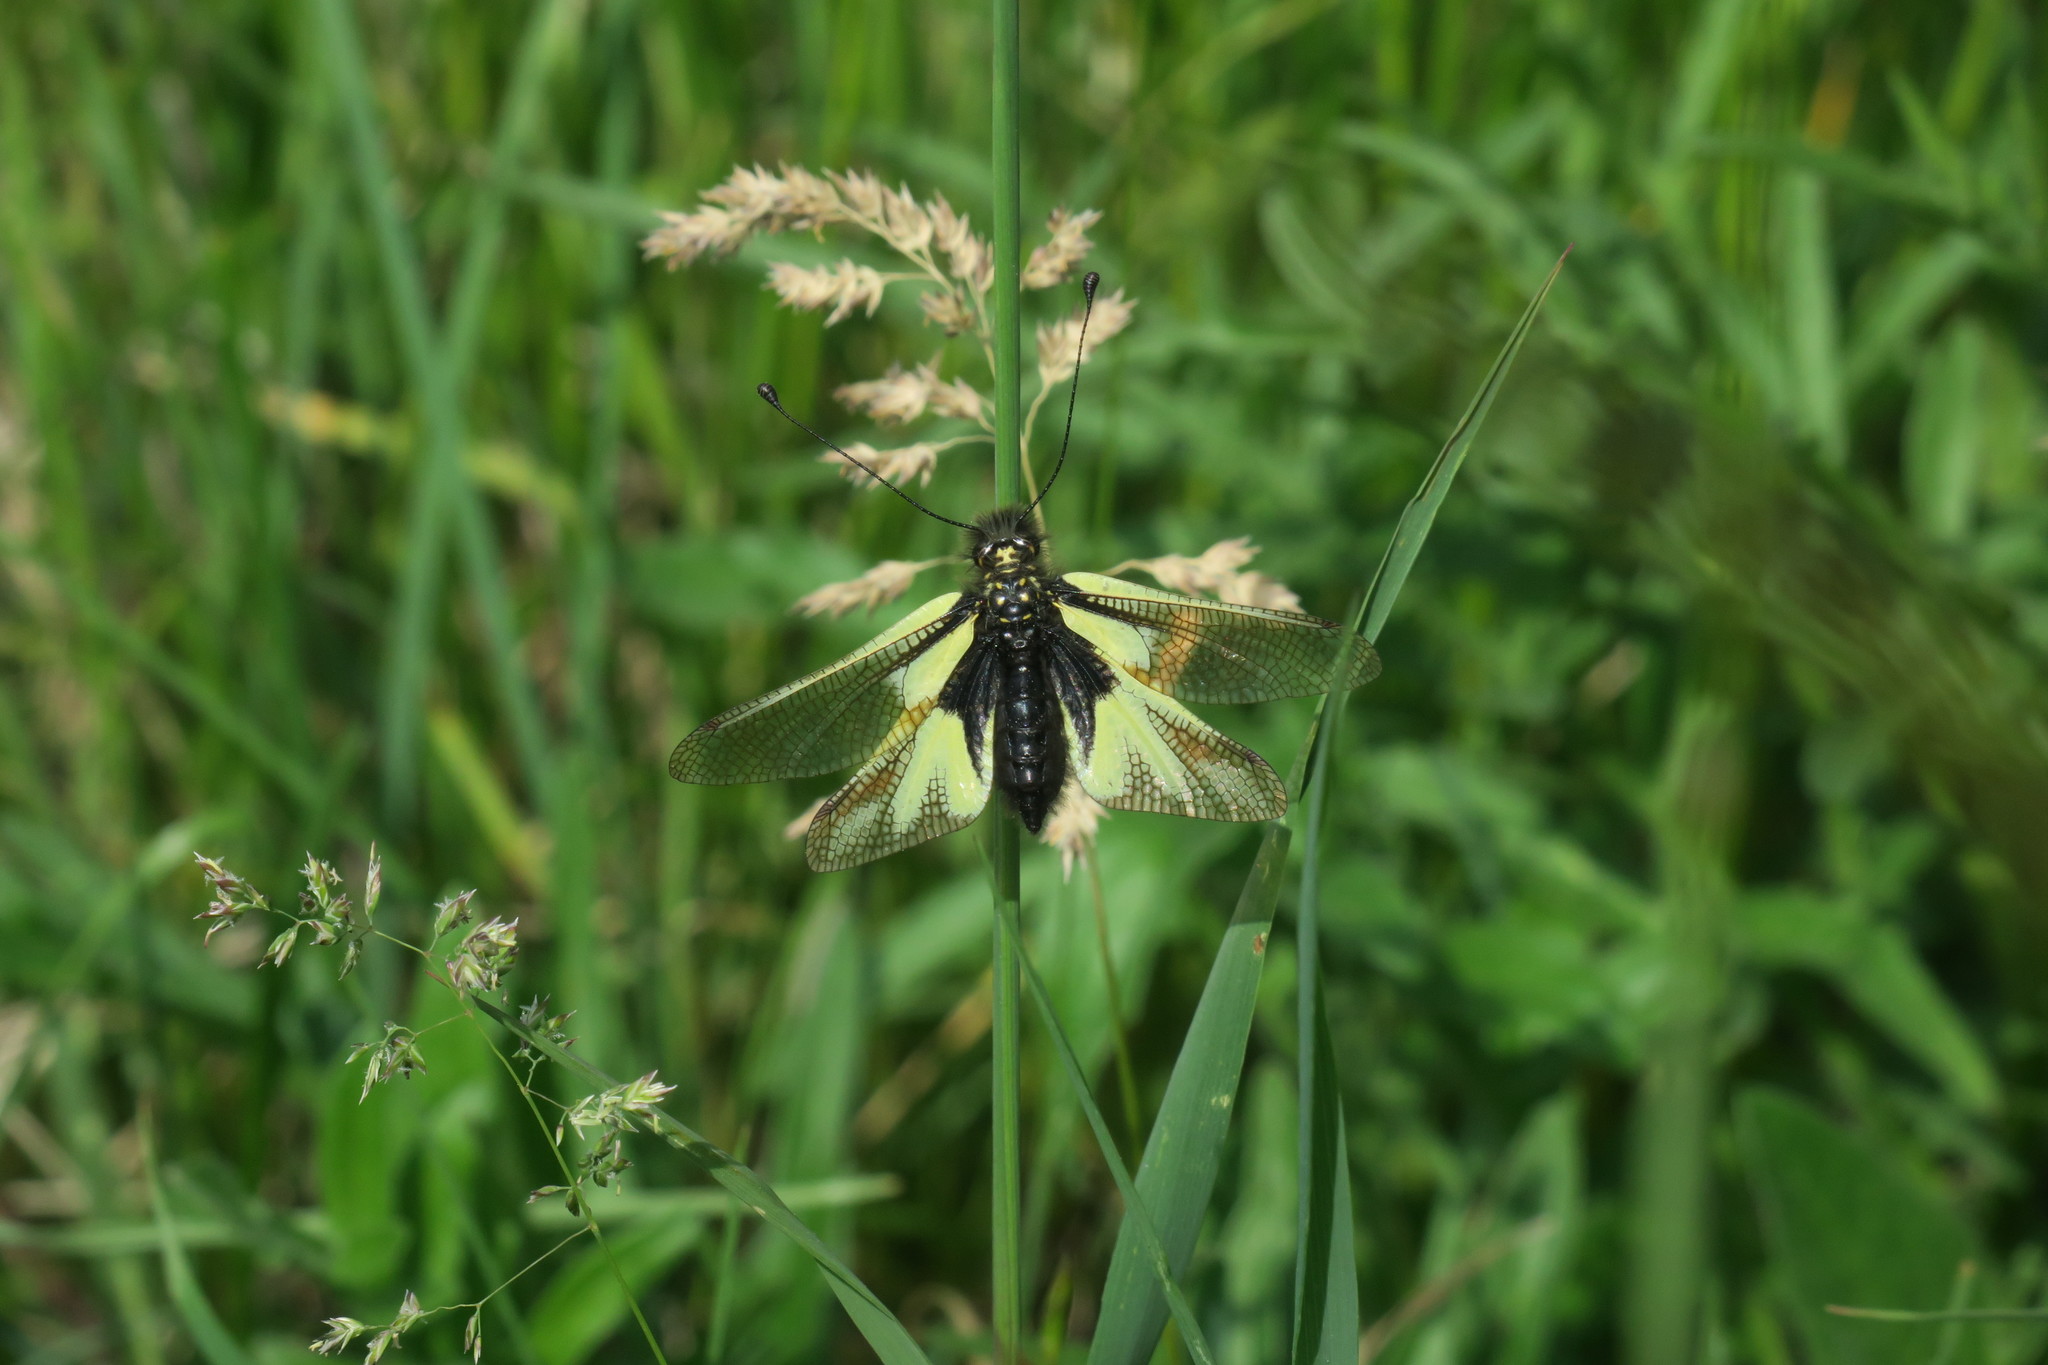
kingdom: Animalia
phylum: Arthropoda
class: Insecta
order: Neuroptera
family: Ascalaphidae
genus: Libelloides
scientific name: Libelloides coccajus
